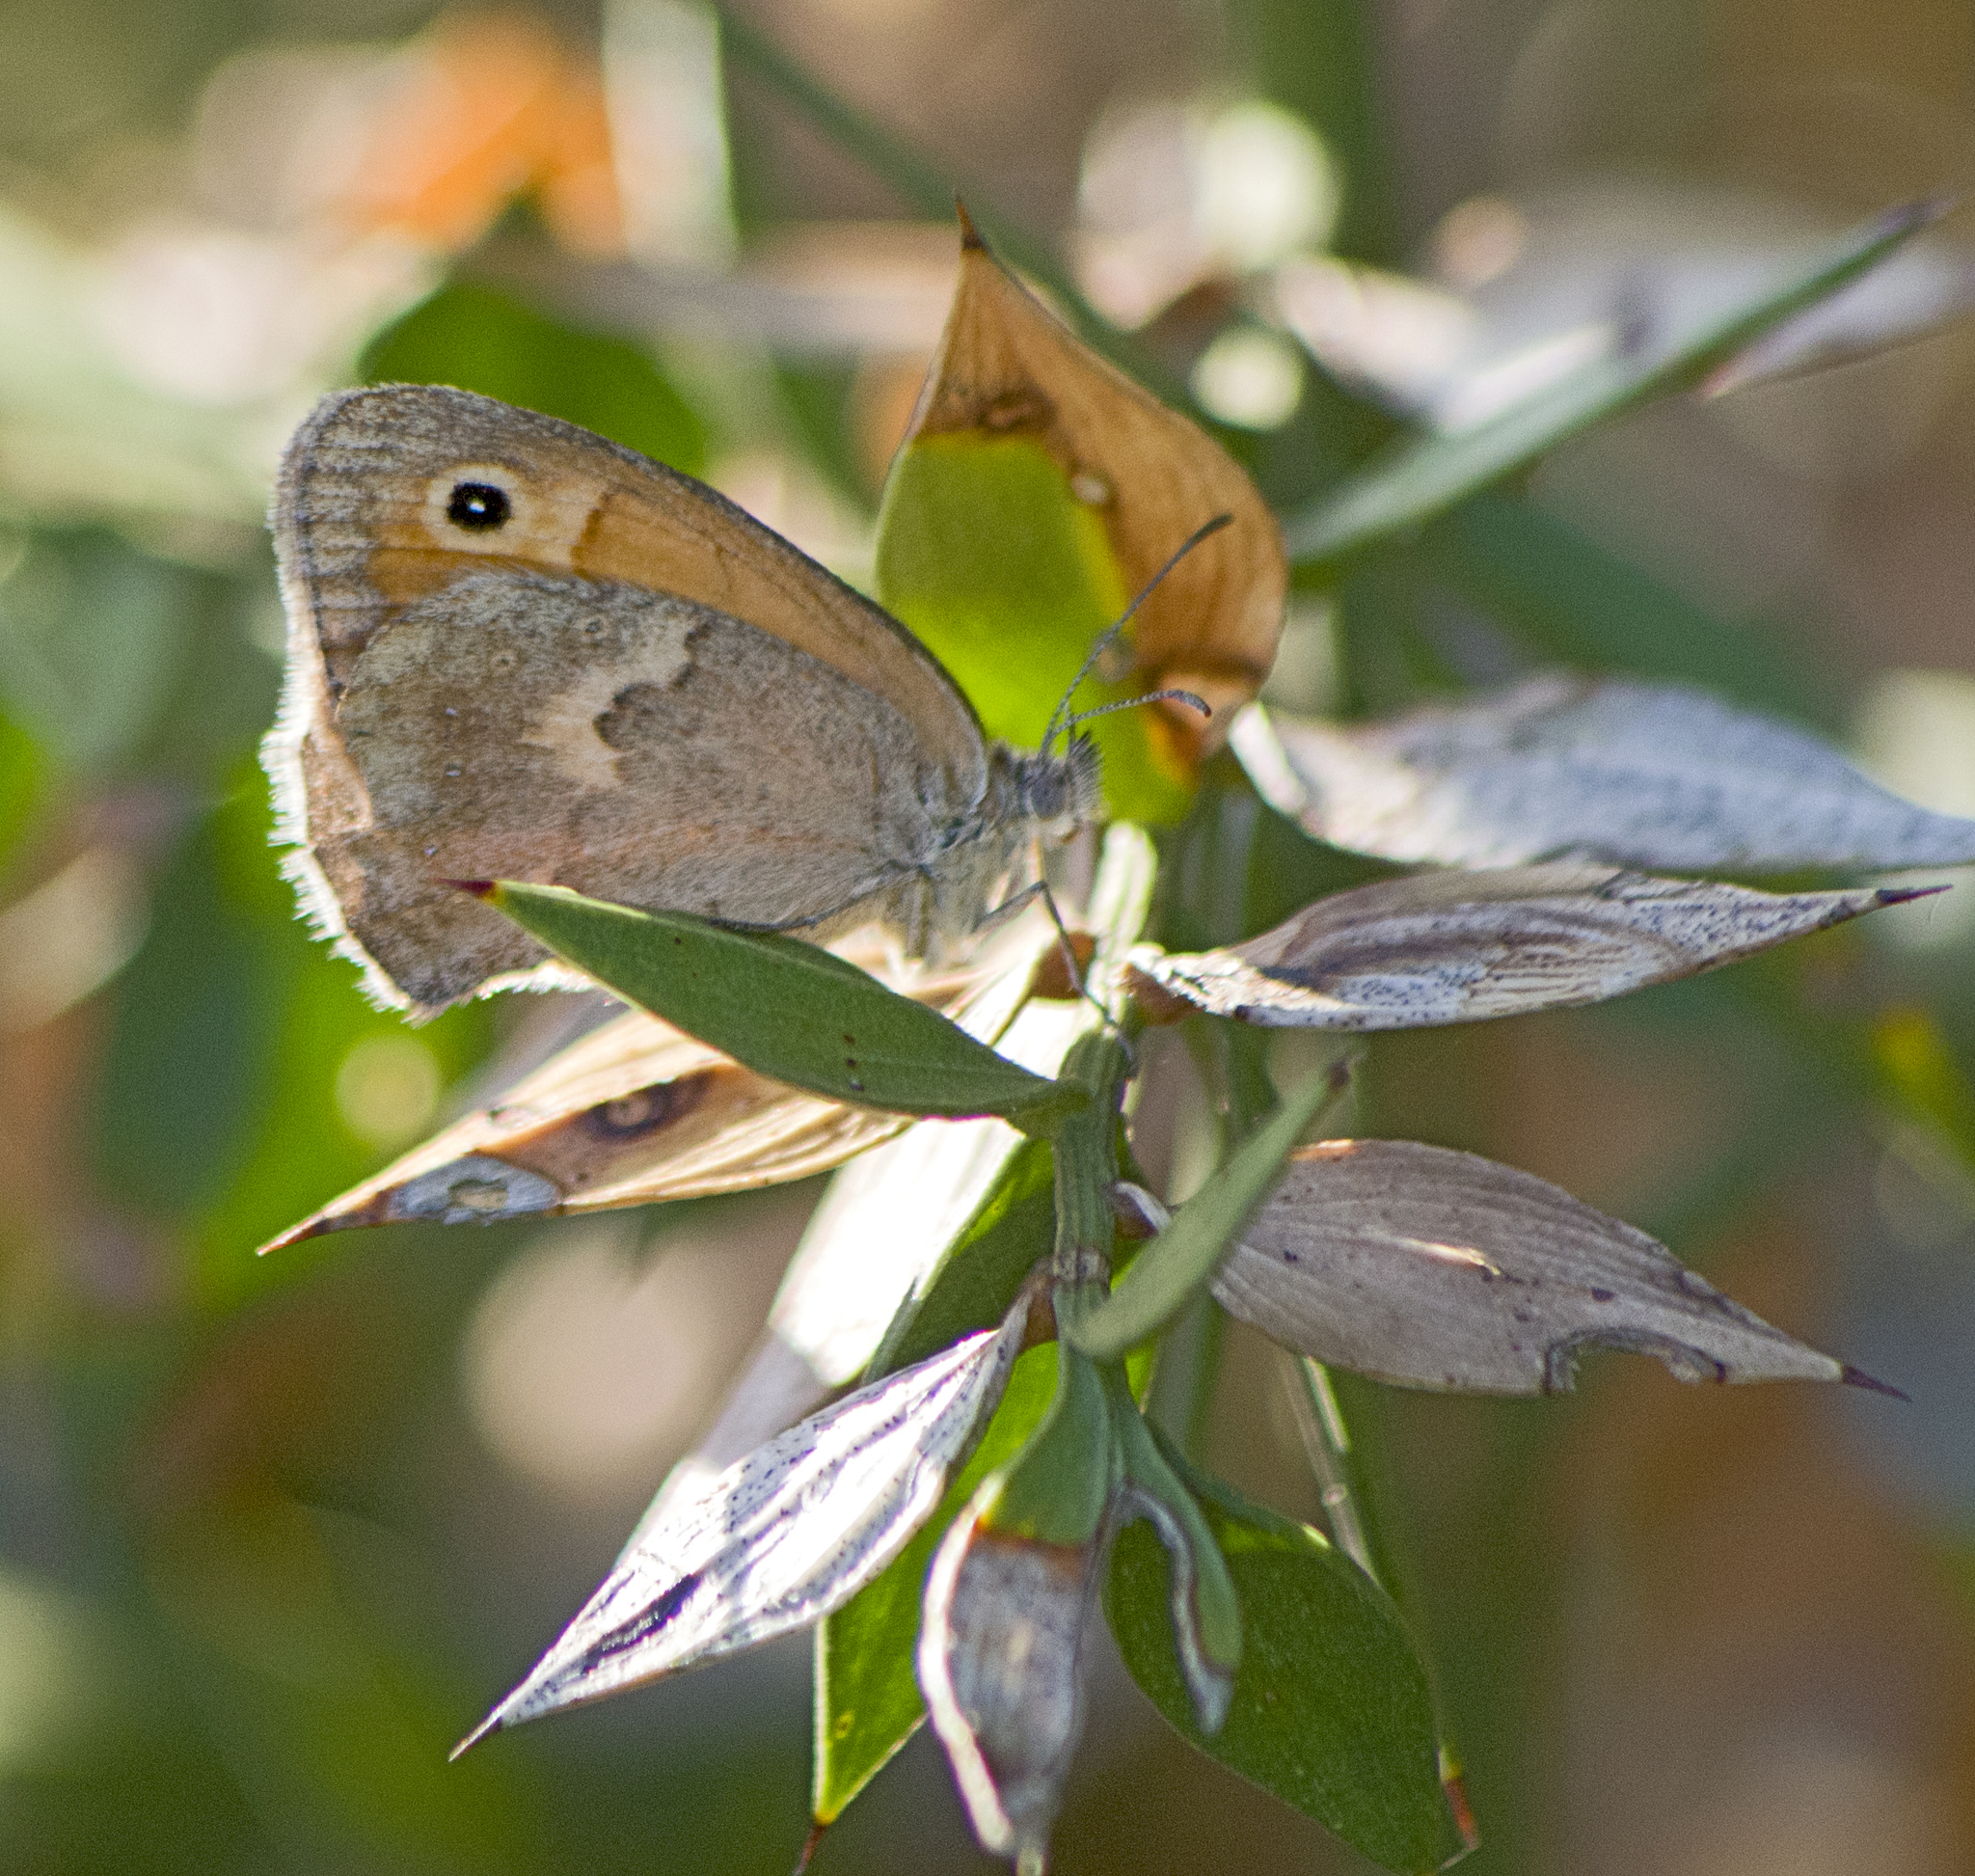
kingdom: Animalia
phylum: Arthropoda
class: Insecta
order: Lepidoptera
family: Nymphalidae
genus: Coenonympha
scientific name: Coenonympha pamphilus
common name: Small heath
